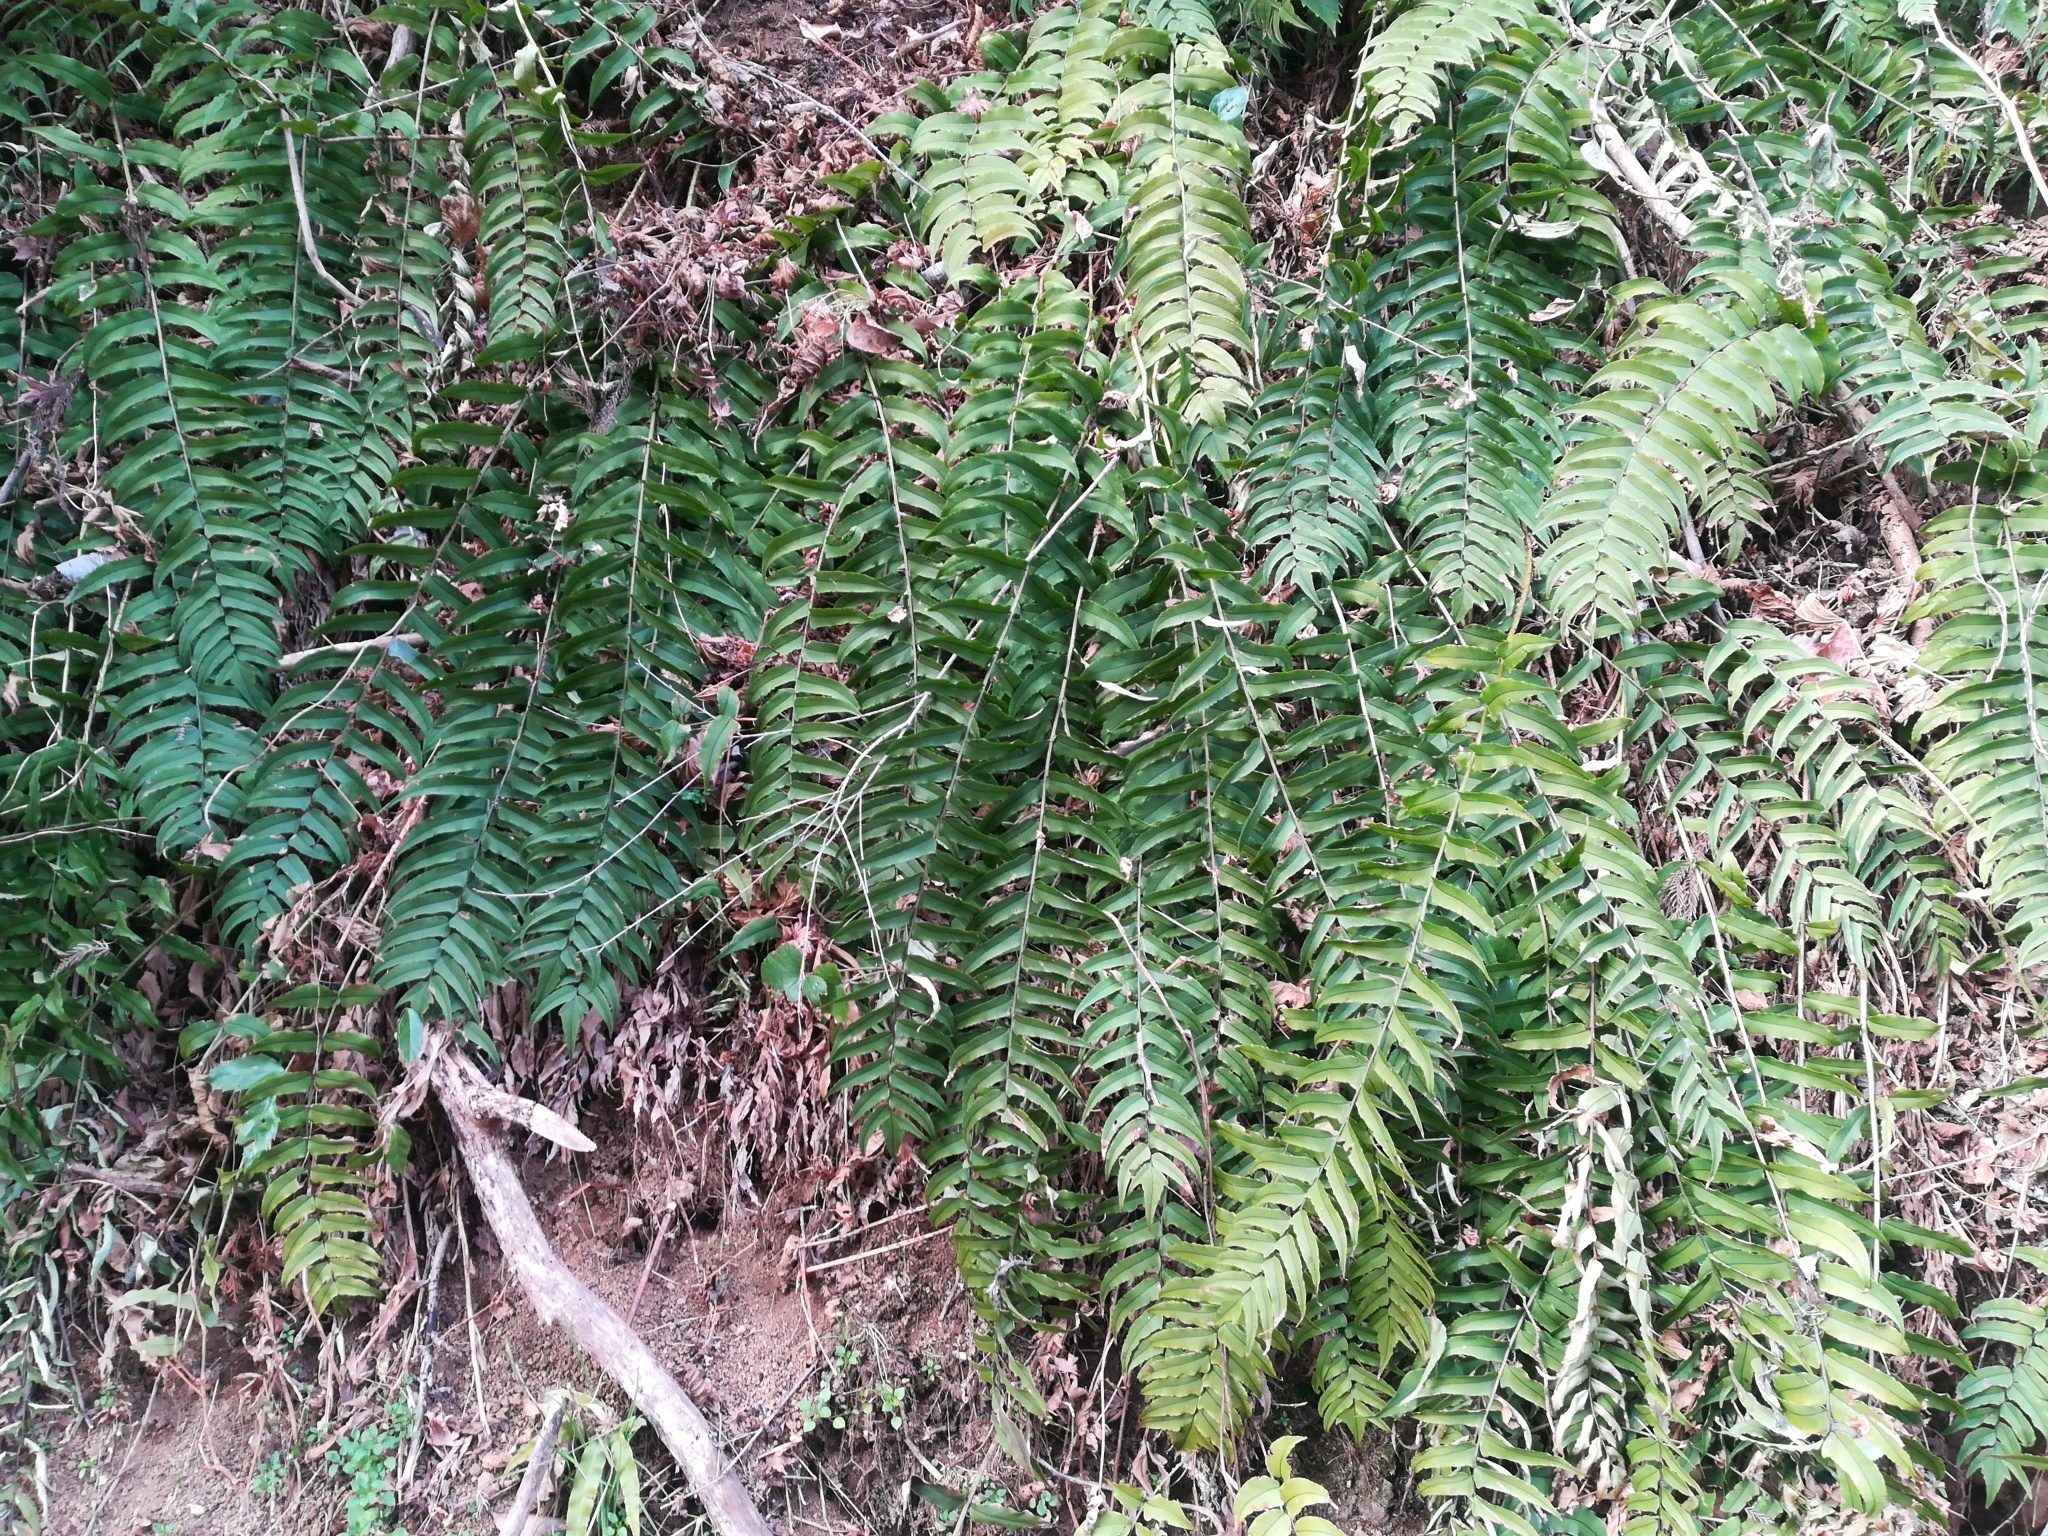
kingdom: Plantae
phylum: Tracheophyta
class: Polypodiopsida
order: Polypodiales
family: Dryopteridaceae
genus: Cyrtomium
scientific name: Cyrtomium fortunei
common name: Asian netvein hollyfern
